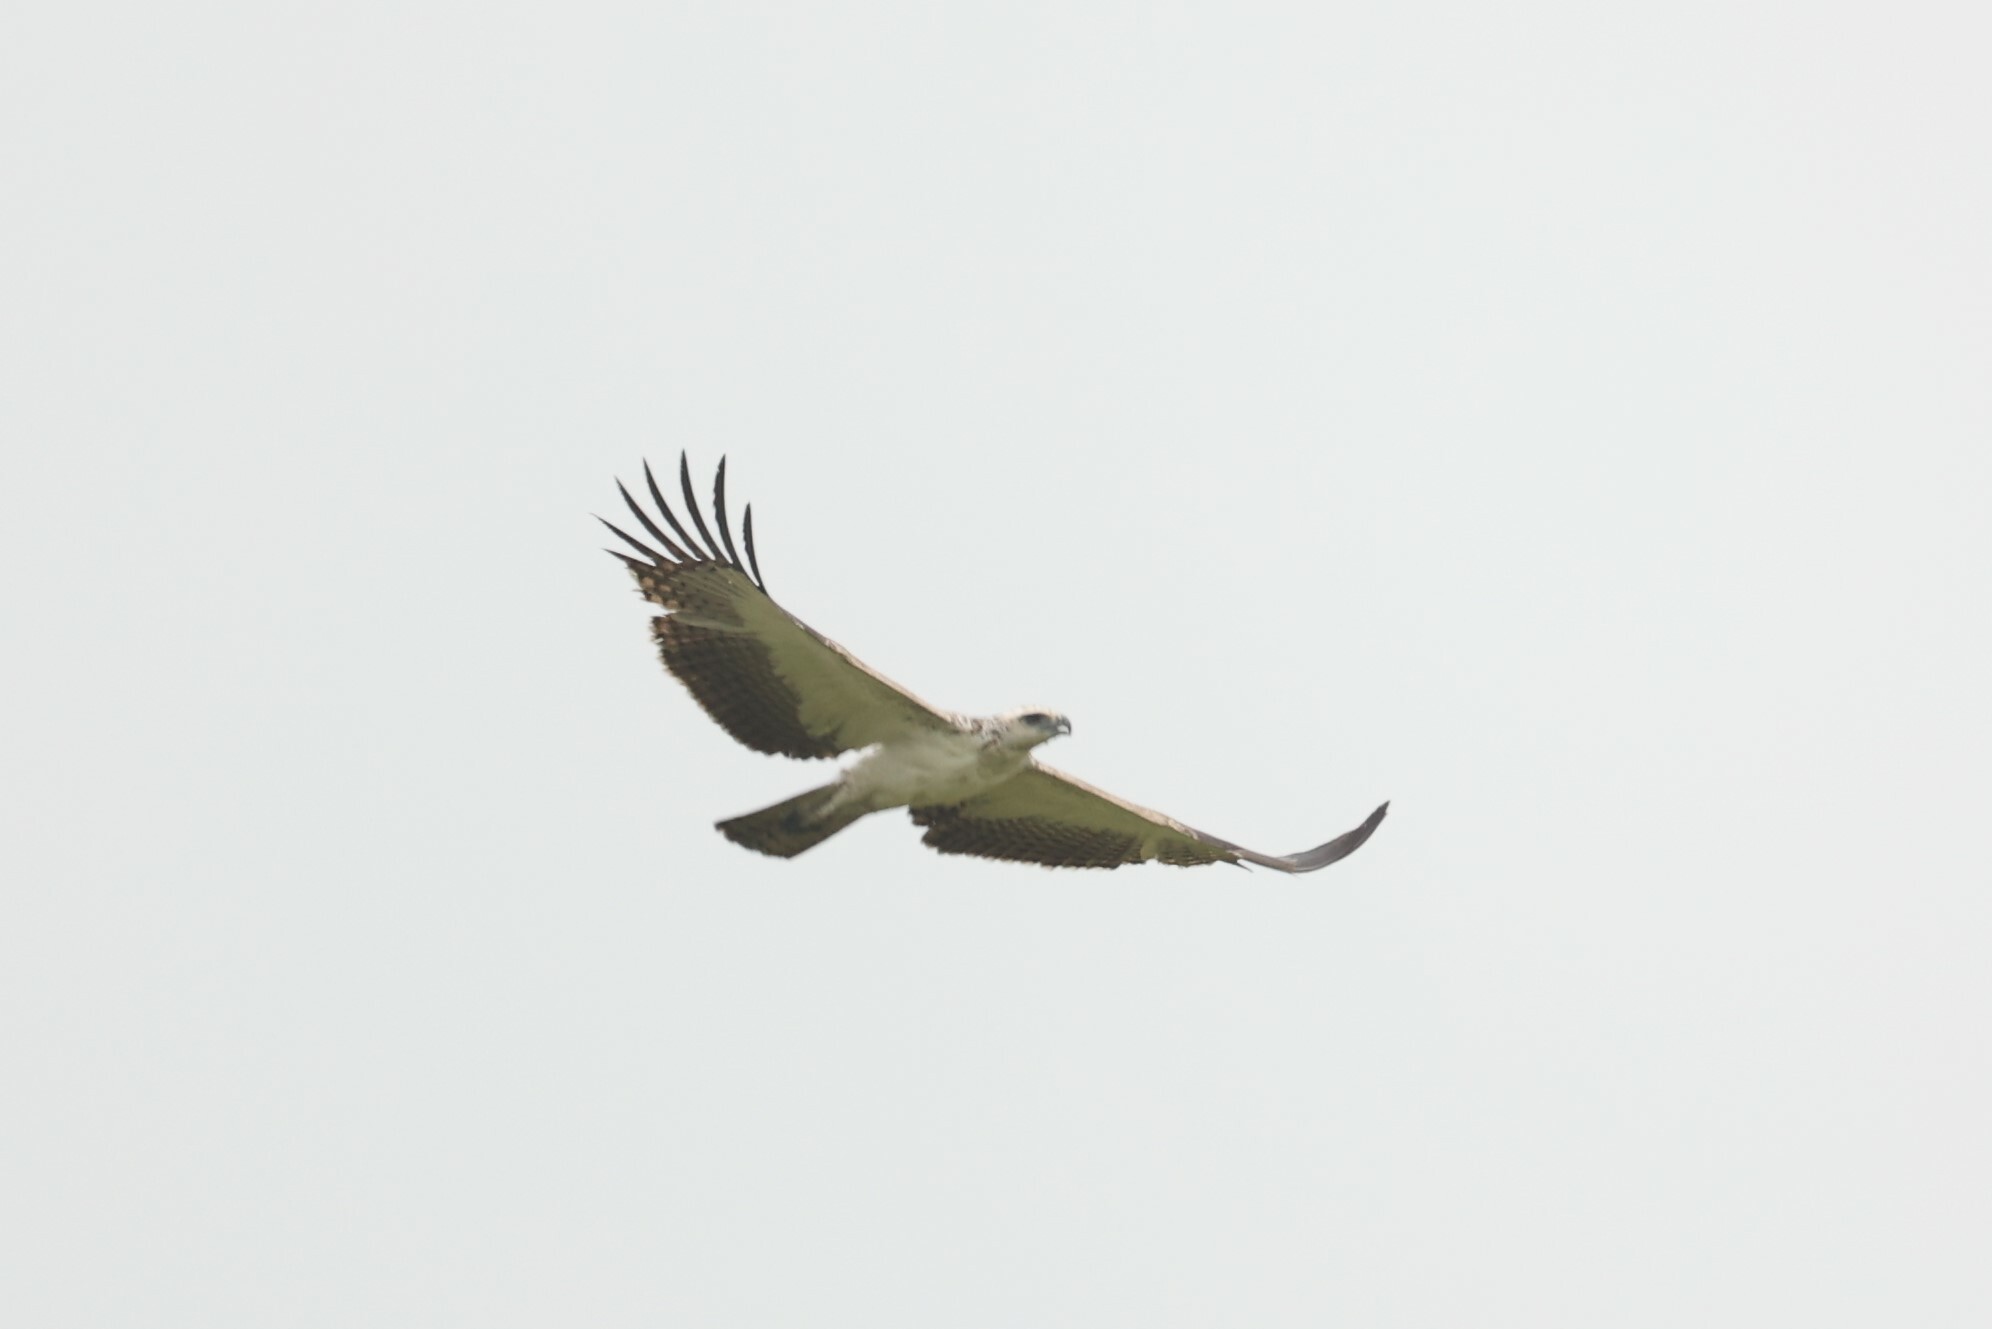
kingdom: Animalia
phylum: Chordata
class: Aves
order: Accipitriformes
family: Accipitridae
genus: Polemaetus
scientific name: Polemaetus bellicosus
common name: Martial eagle
